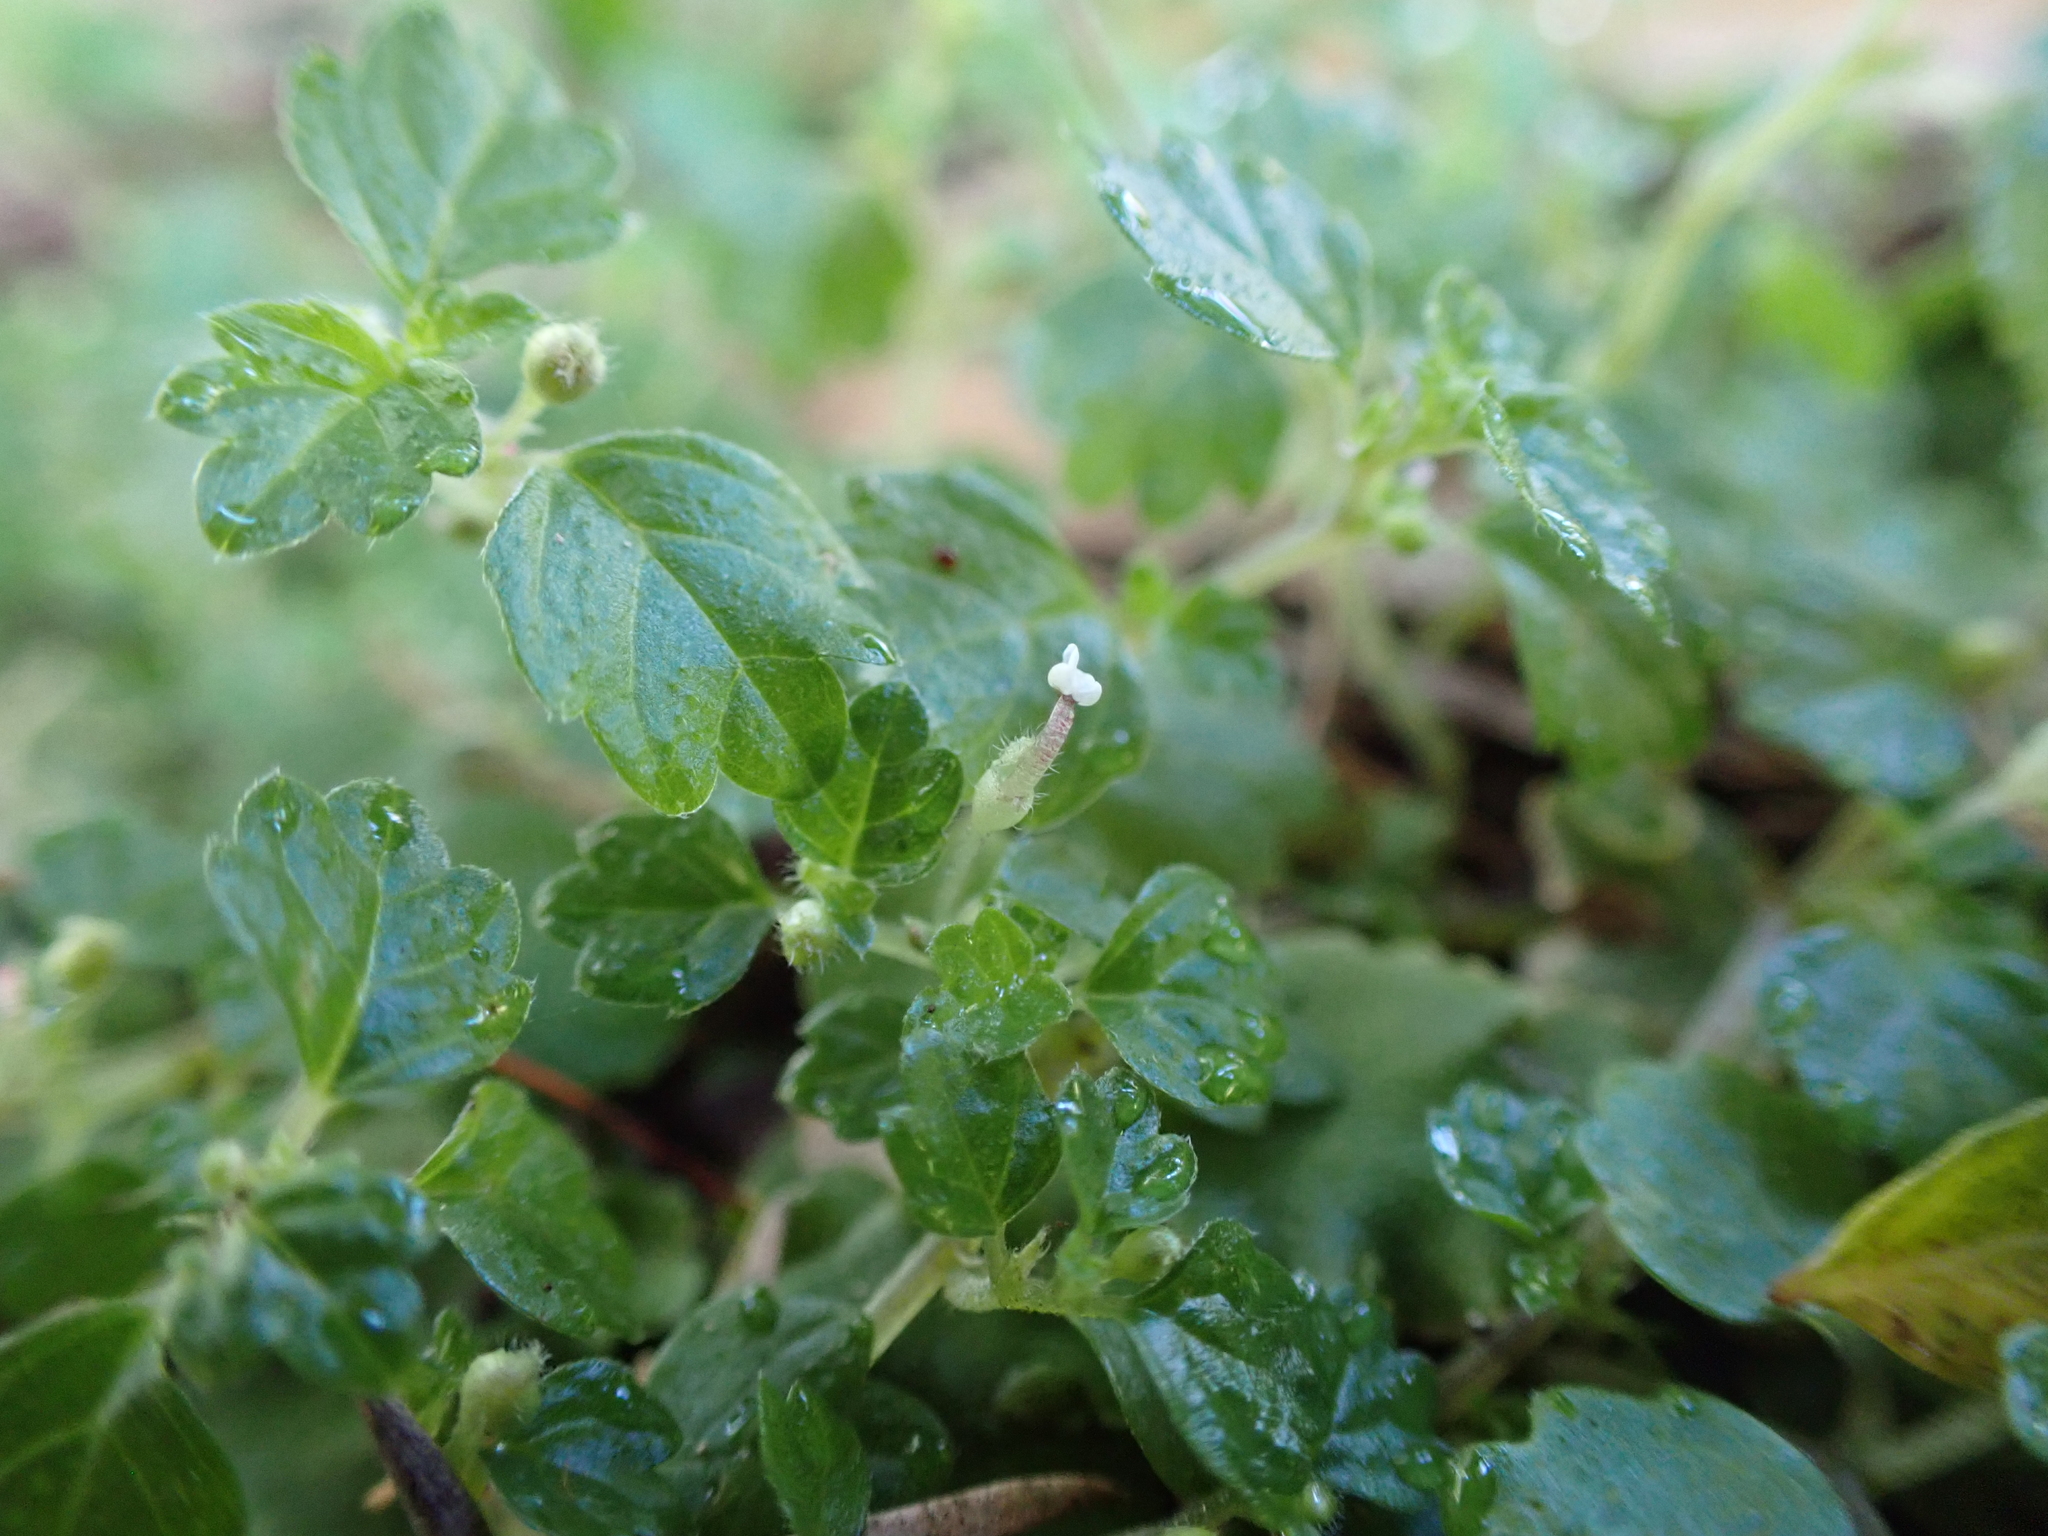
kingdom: Plantae
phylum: Tracheophyta
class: Magnoliopsida
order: Rosales
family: Urticaceae
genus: Australina
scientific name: Australina pusilla
